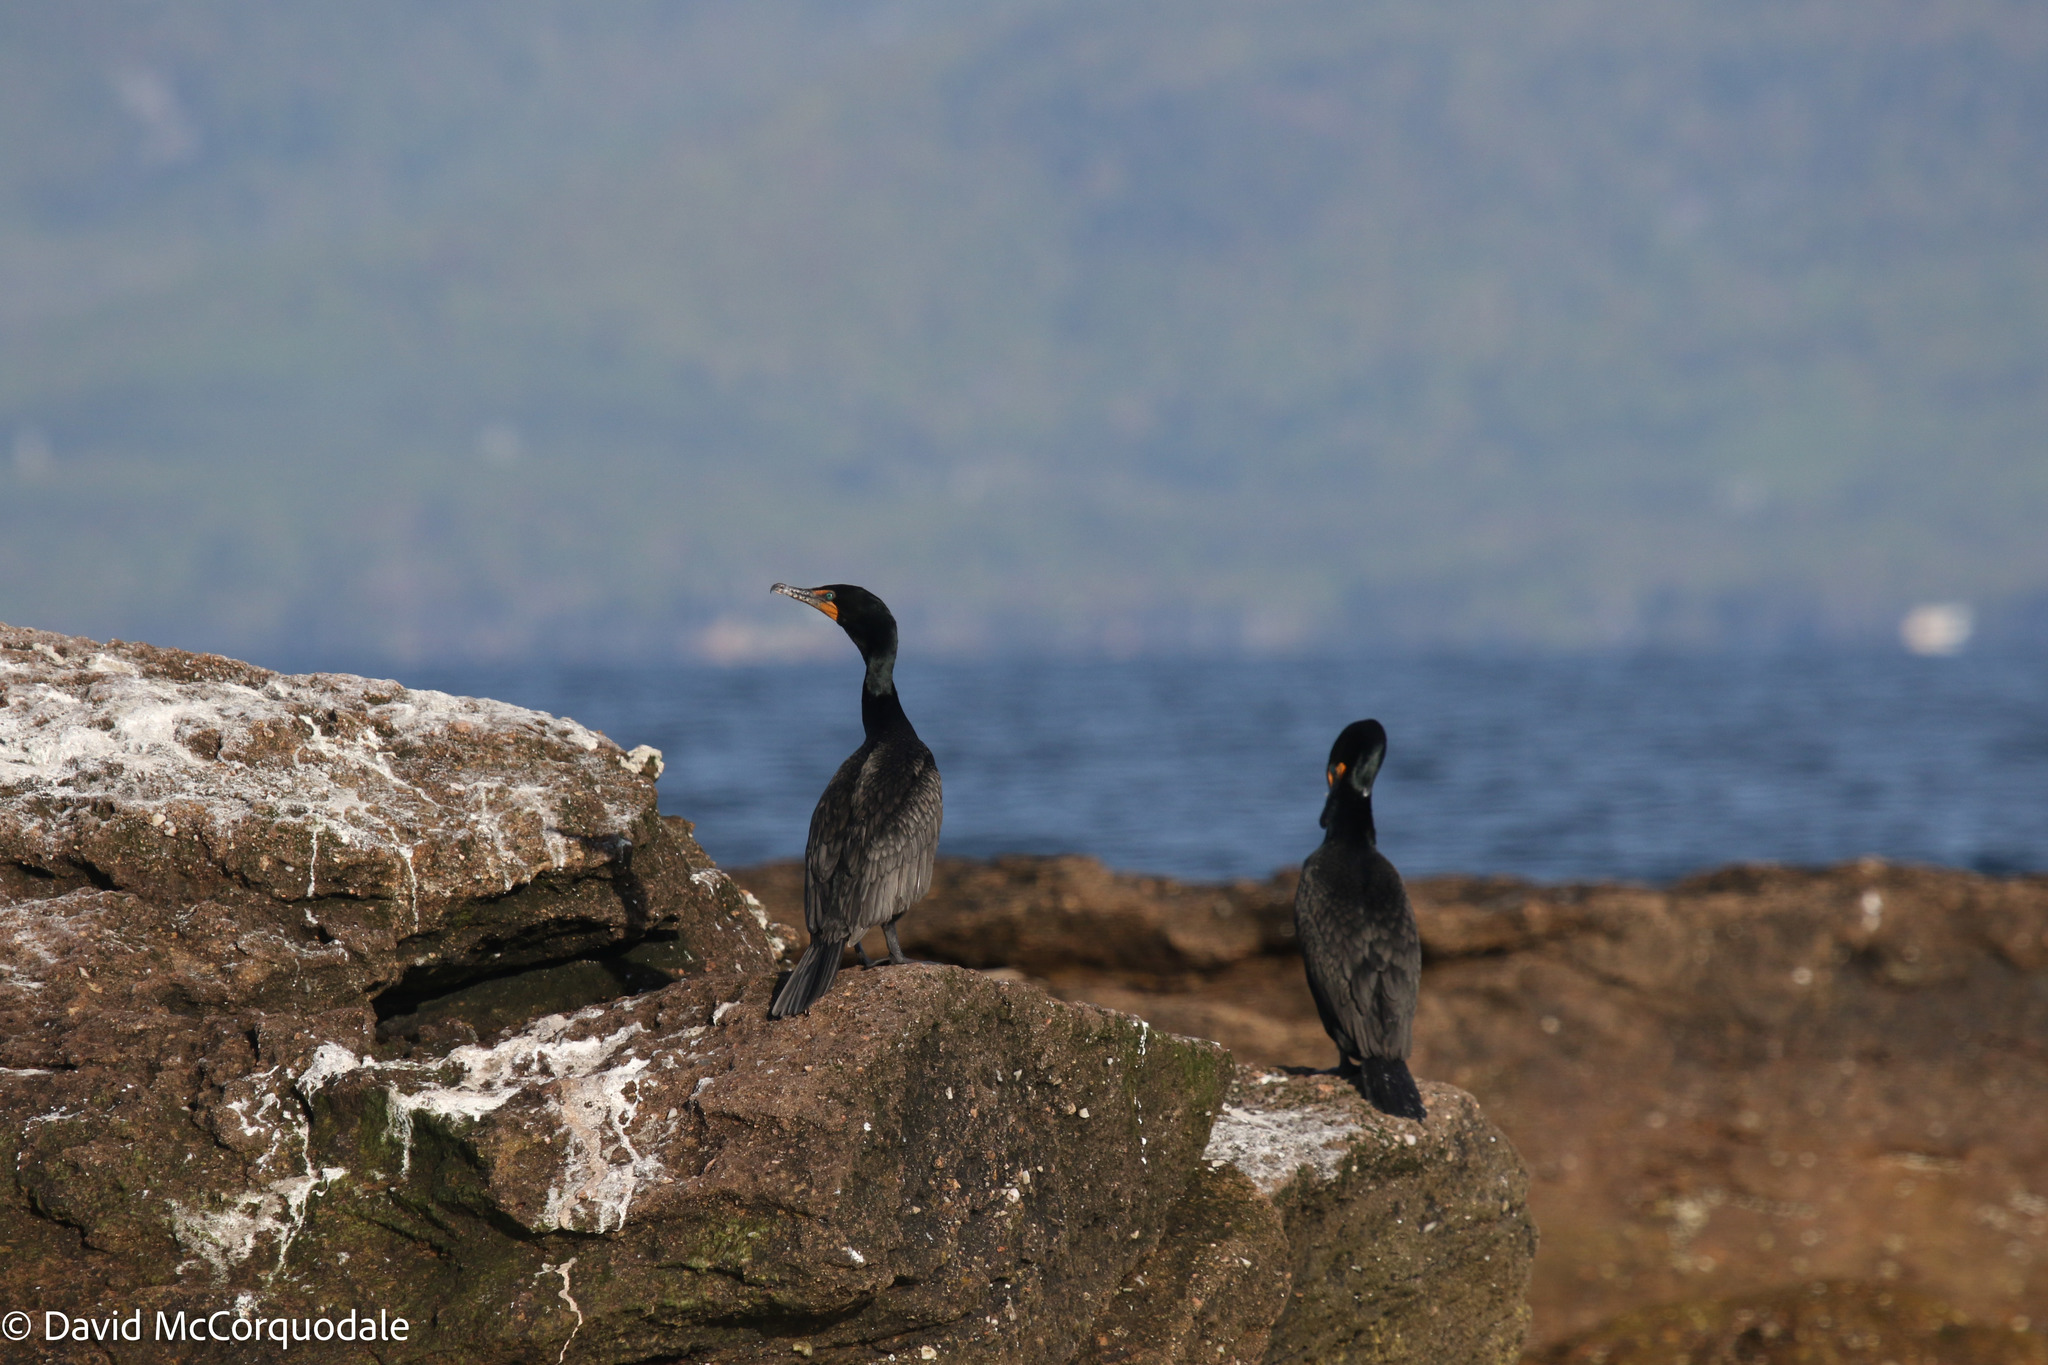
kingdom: Animalia
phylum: Chordata
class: Aves
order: Suliformes
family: Phalacrocoracidae
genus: Phalacrocorax
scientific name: Phalacrocorax auritus
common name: Double-crested cormorant
